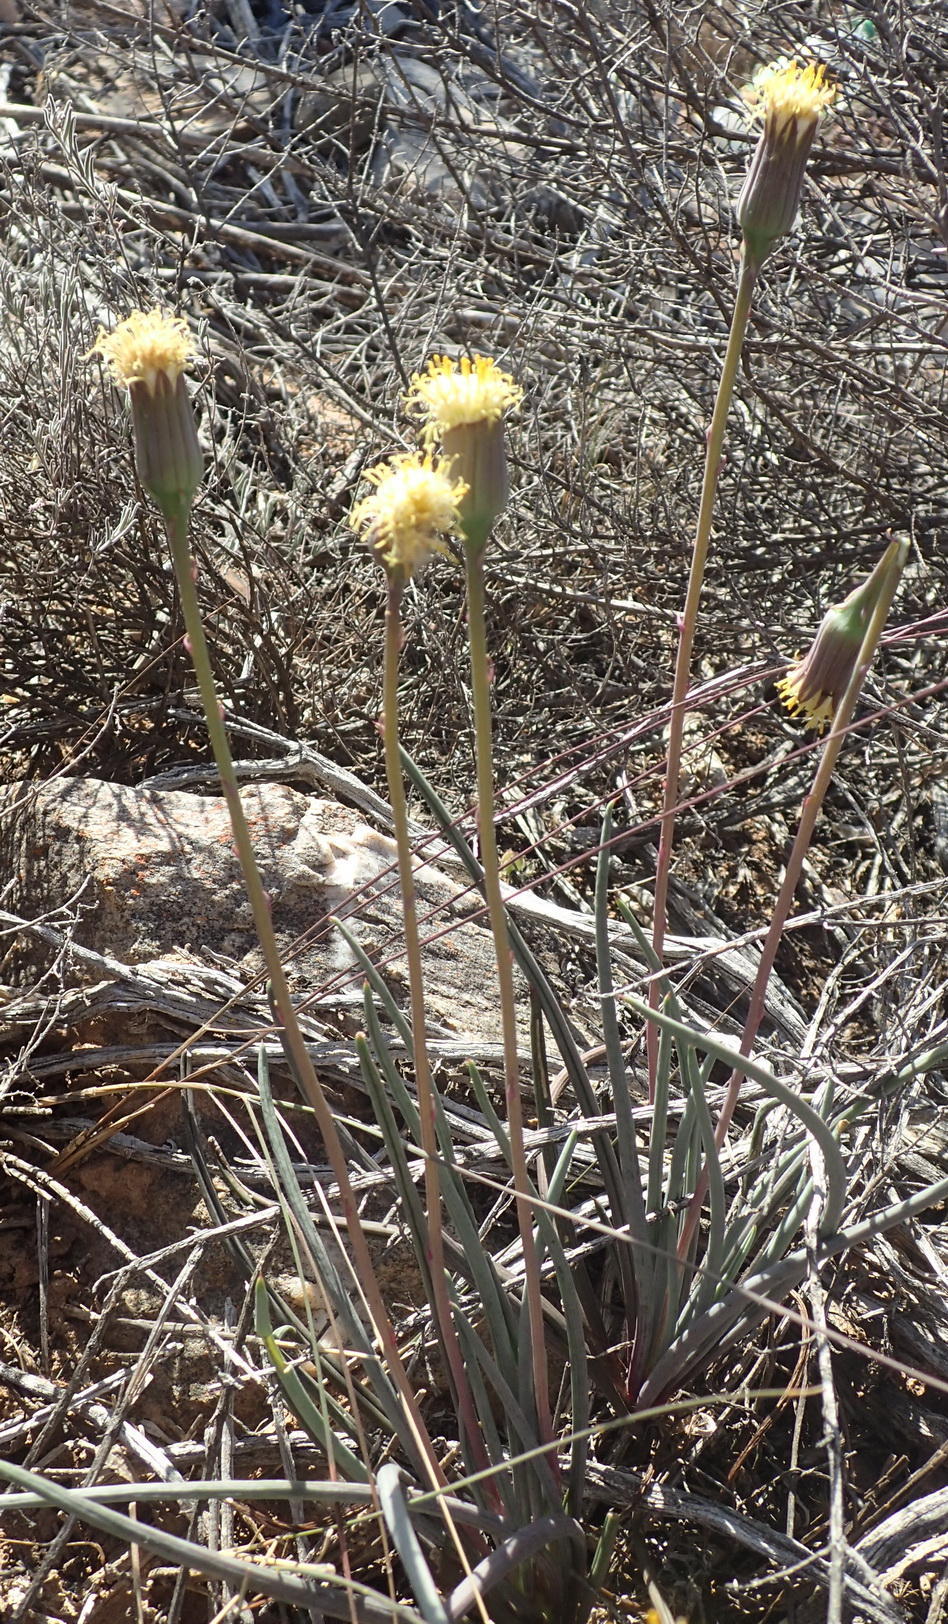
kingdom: Plantae
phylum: Tracheophyta
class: Magnoliopsida
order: Asterales
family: Asteraceae
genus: Curio
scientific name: Curio acaulis
